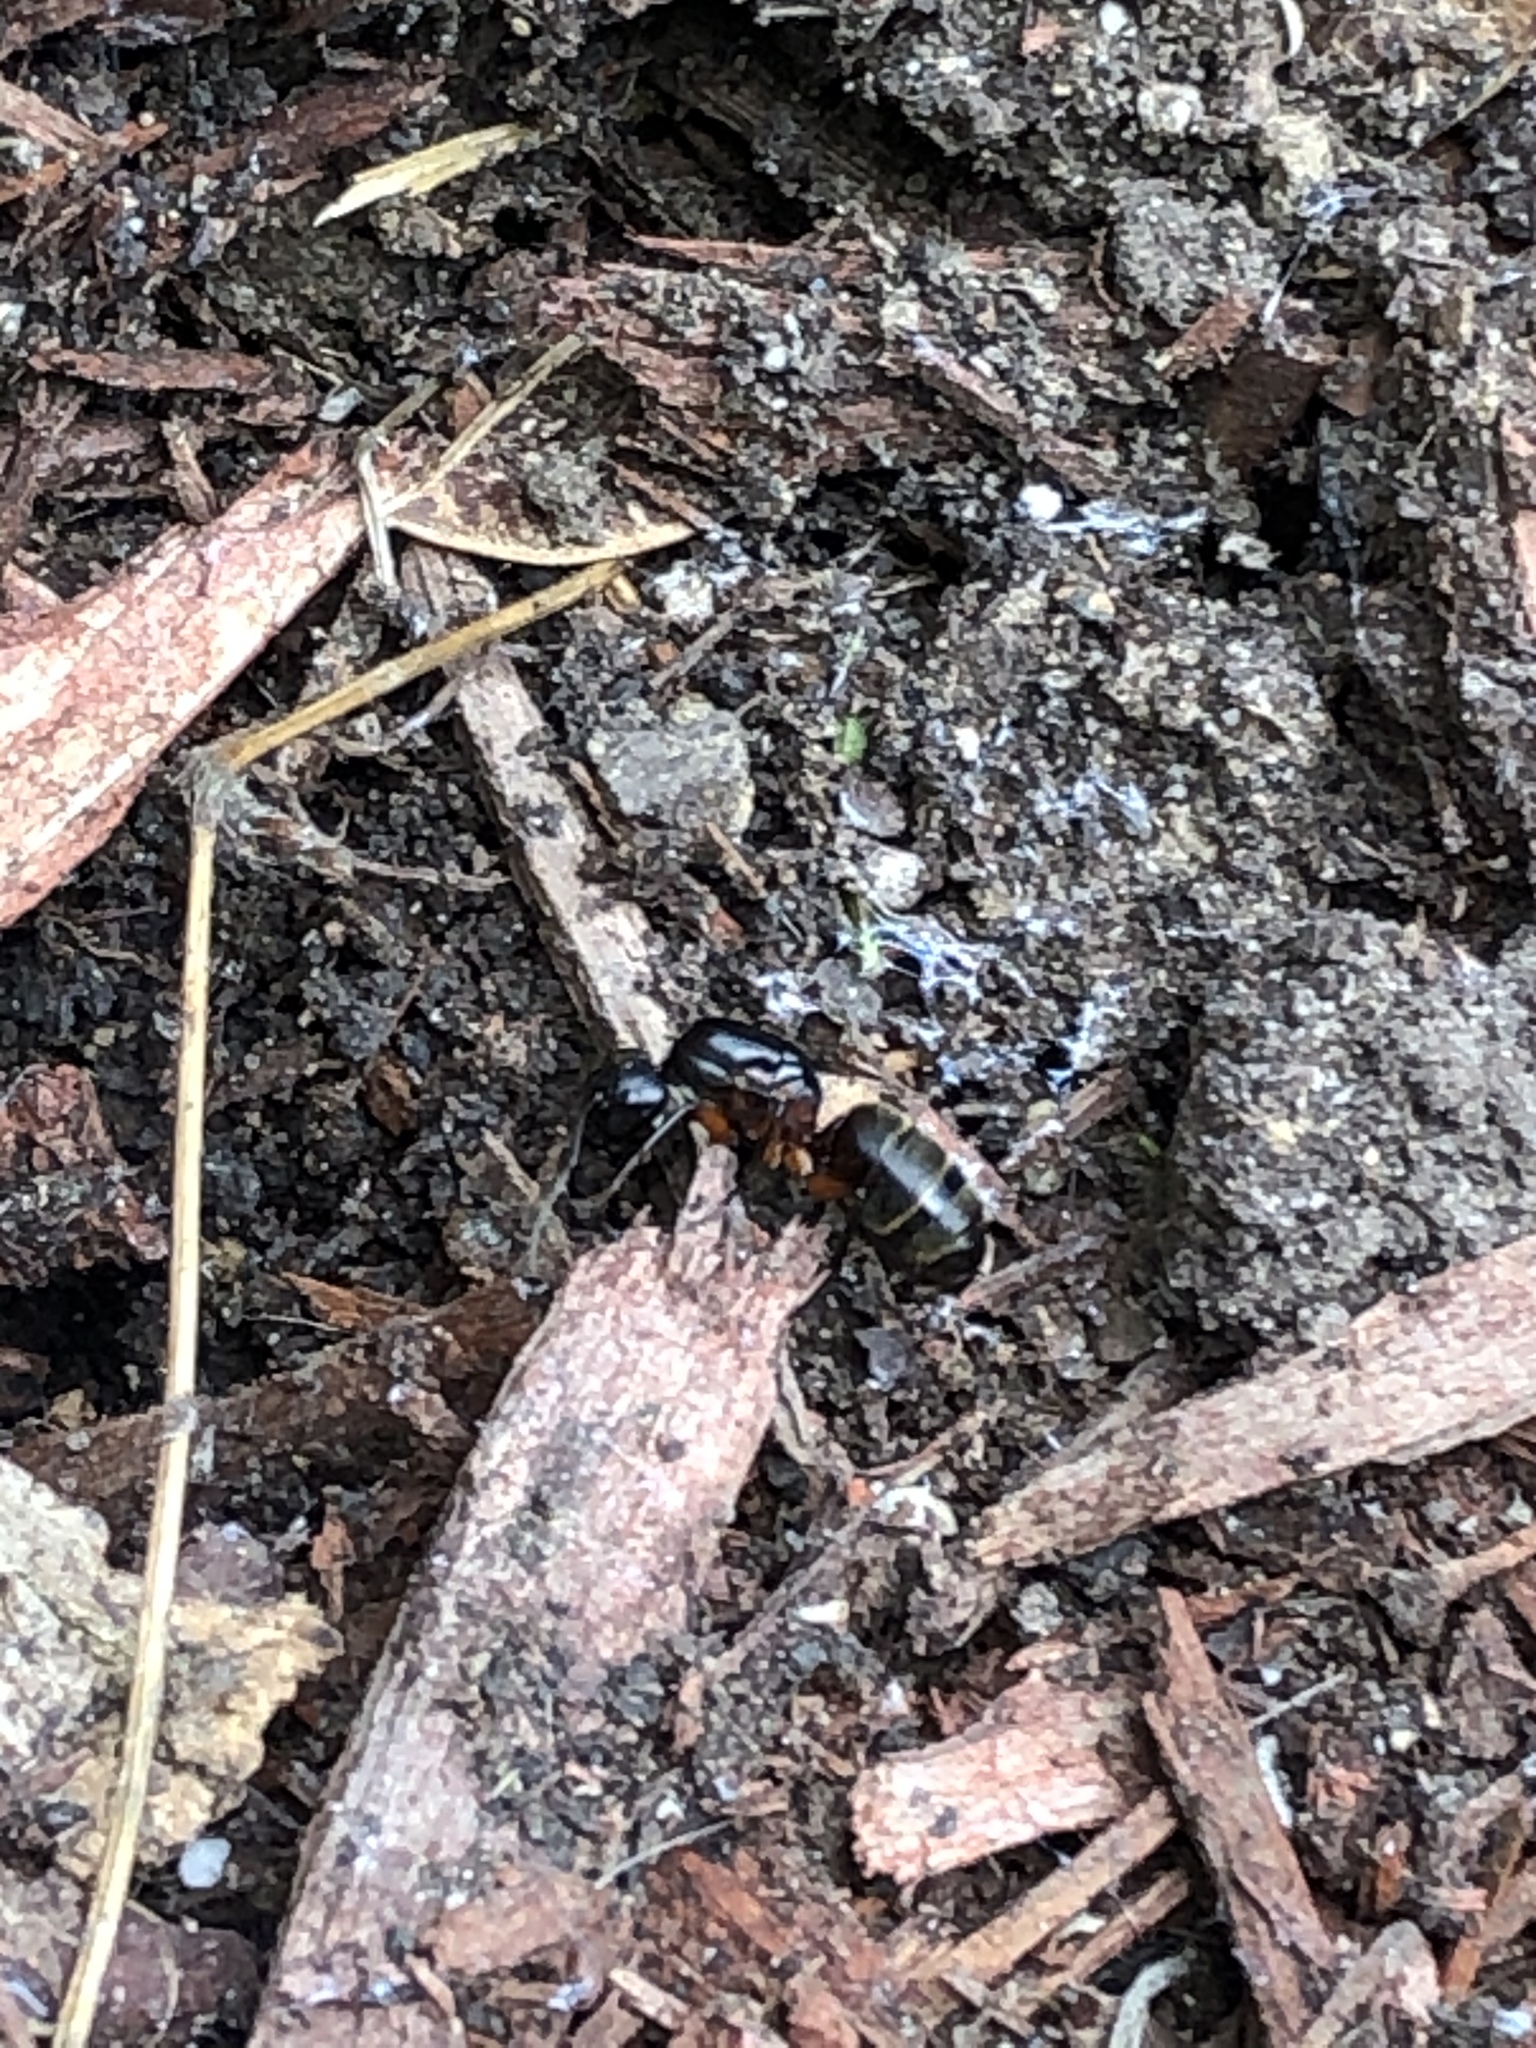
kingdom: Animalia
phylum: Arthropoda
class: Insecta
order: Hymenoptera
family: Formicidae
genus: Camponotus
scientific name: Camponotus chromaiodes
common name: Red carpenter ant
